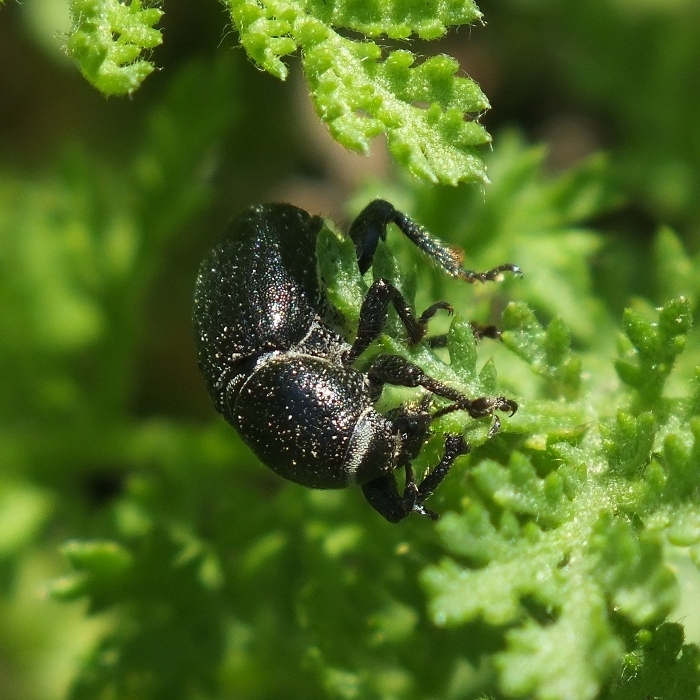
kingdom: Animalia
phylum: Arthropoda
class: Insecta
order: Coleoptera
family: Curculionidae
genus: Psallidium
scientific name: Psallidium maxillosum
